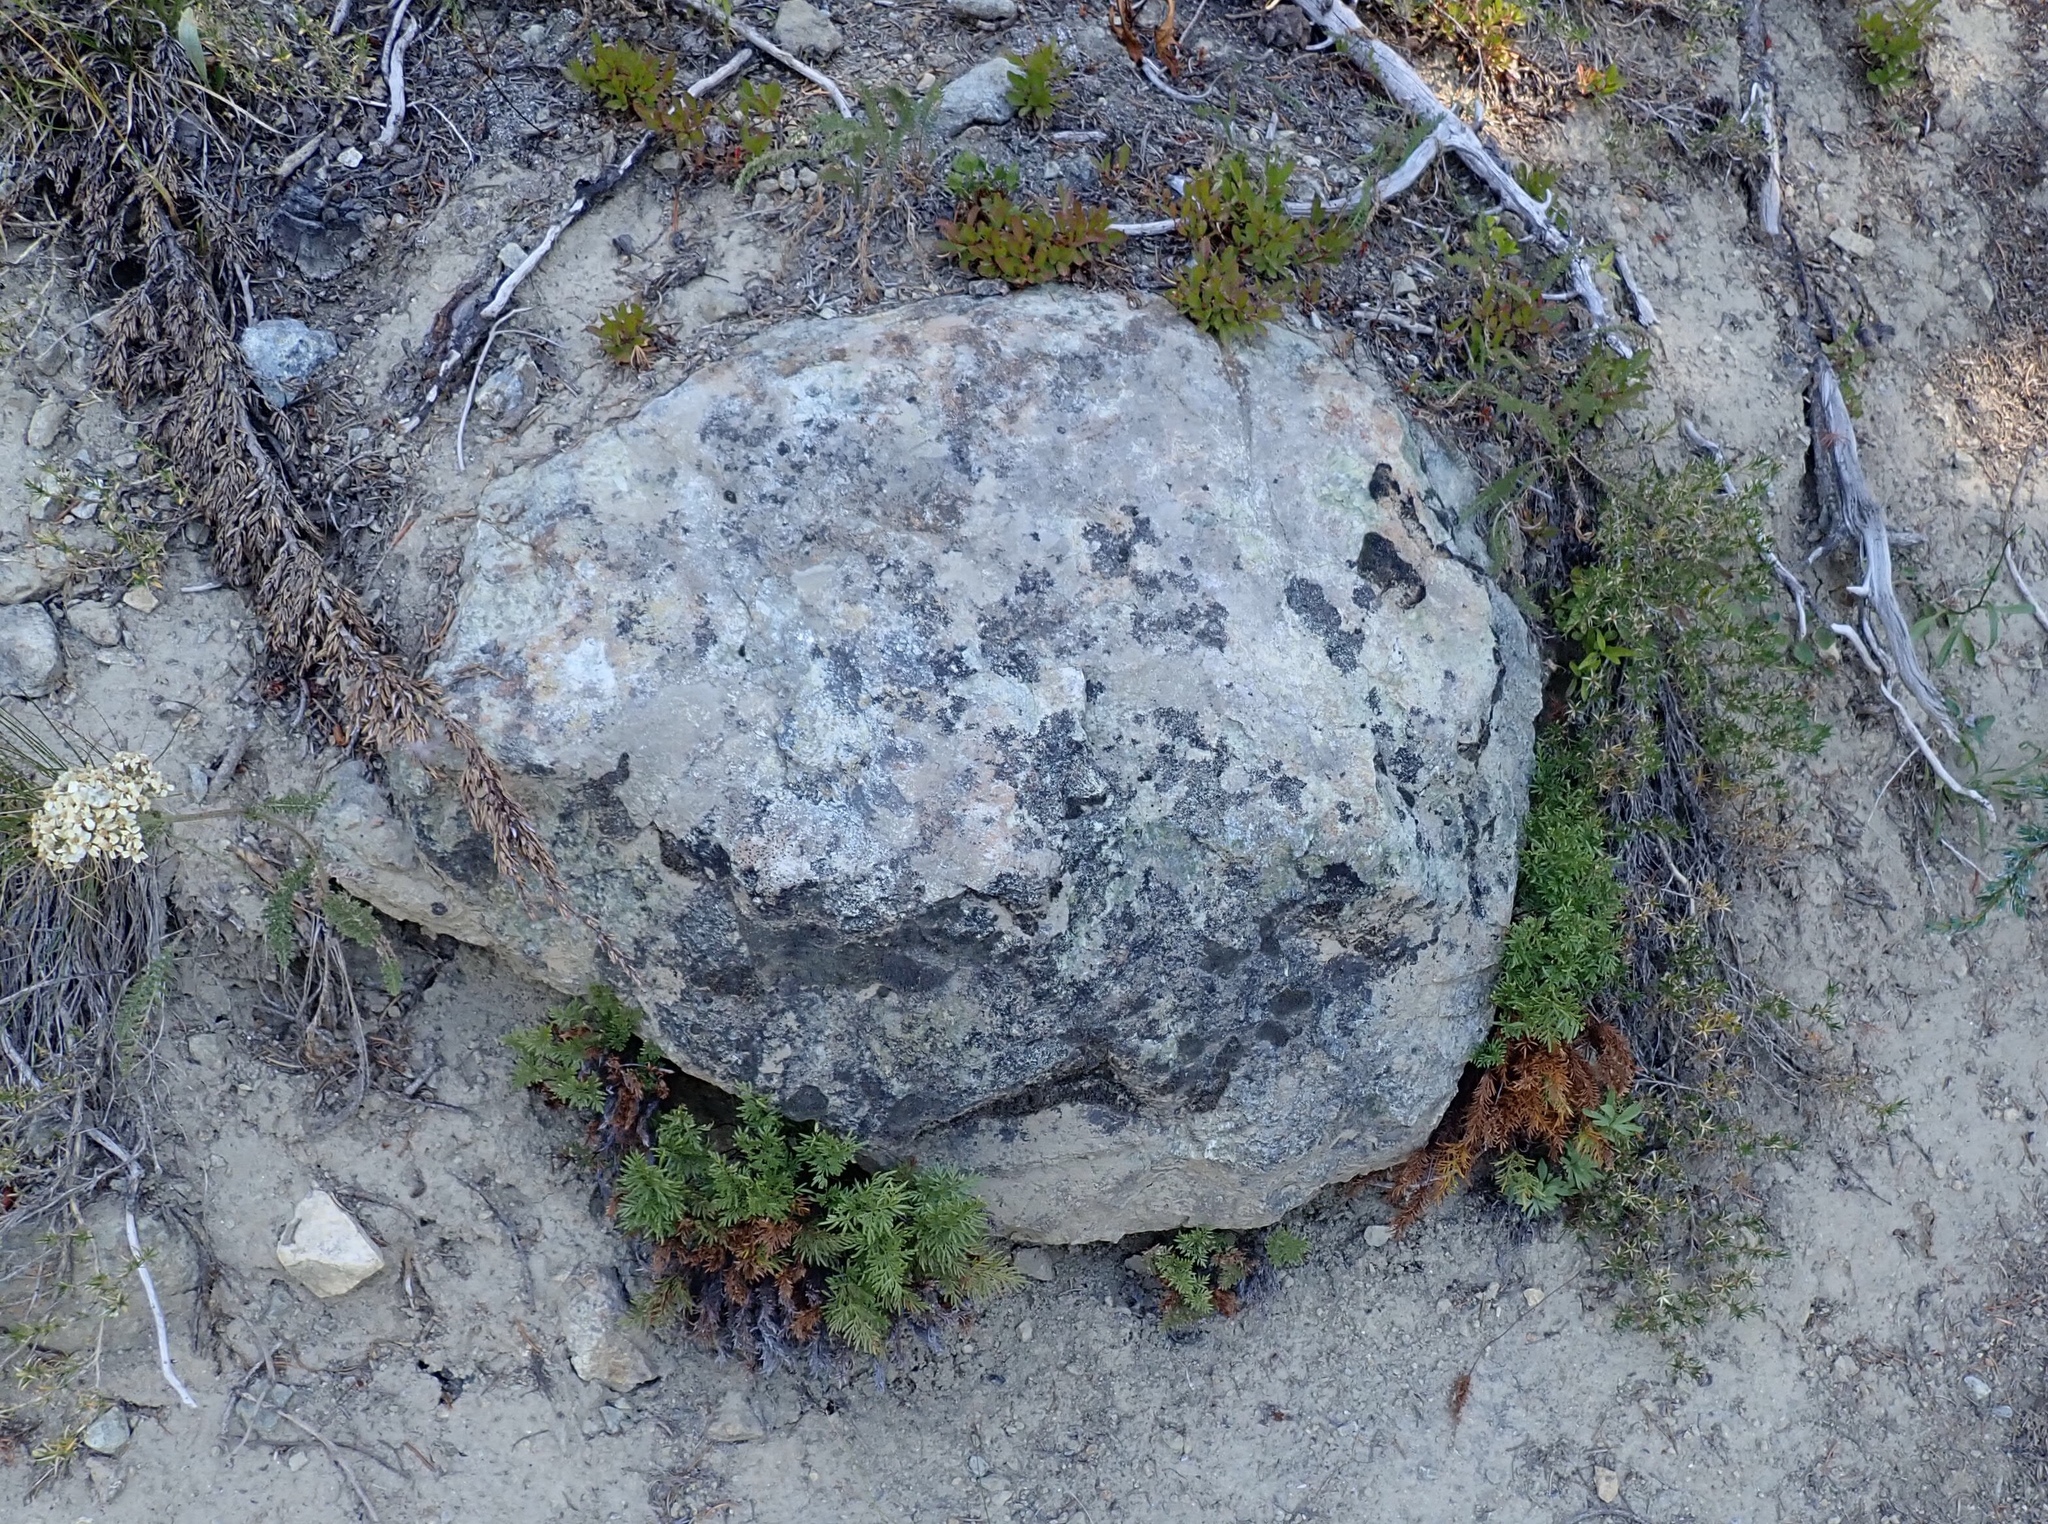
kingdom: Plantae
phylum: Tracheophyta
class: Polypodiopsida
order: Polypodiales
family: Pteridaceae
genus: Aspidotis
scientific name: Aspidotis densa
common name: Indian's dream
